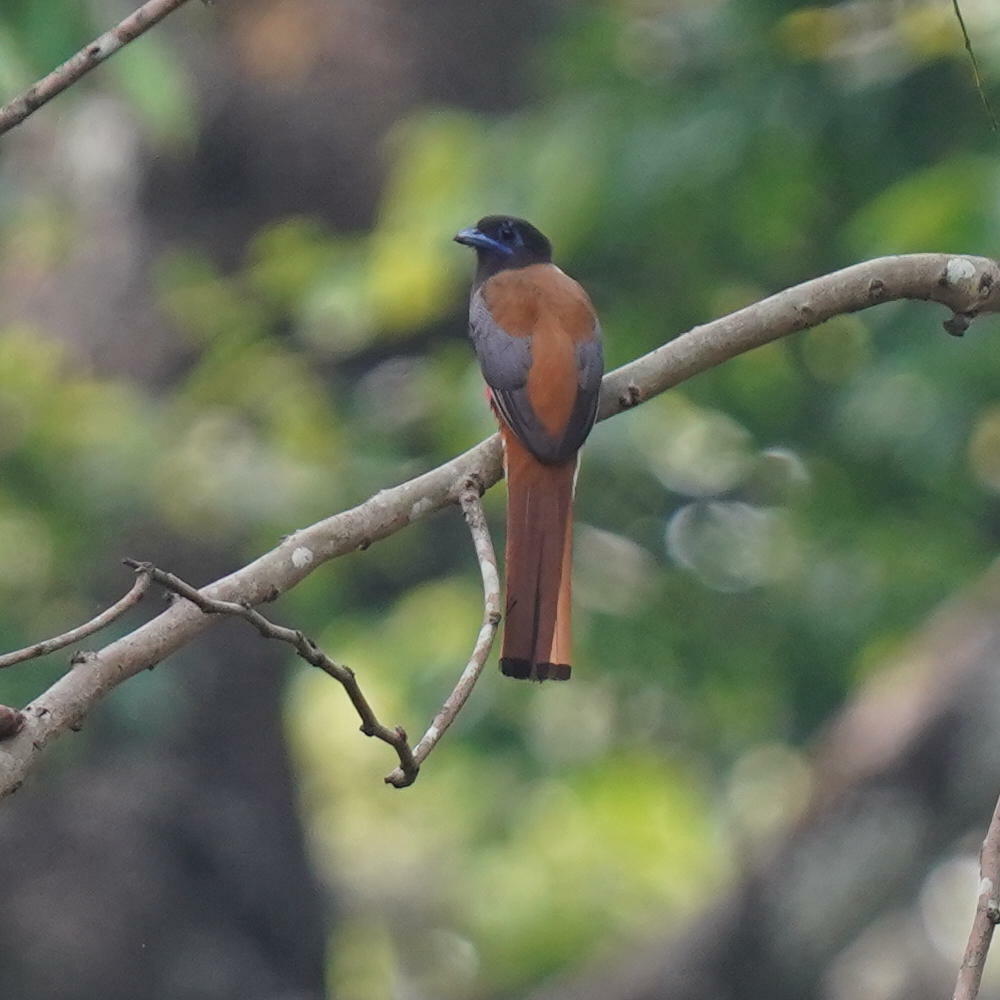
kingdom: Animalia
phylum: Chordata
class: Aves
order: Trogoniformes
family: Trogonidae
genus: Harpactes
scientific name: Harpactes fasciatus
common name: Malabar trogon
